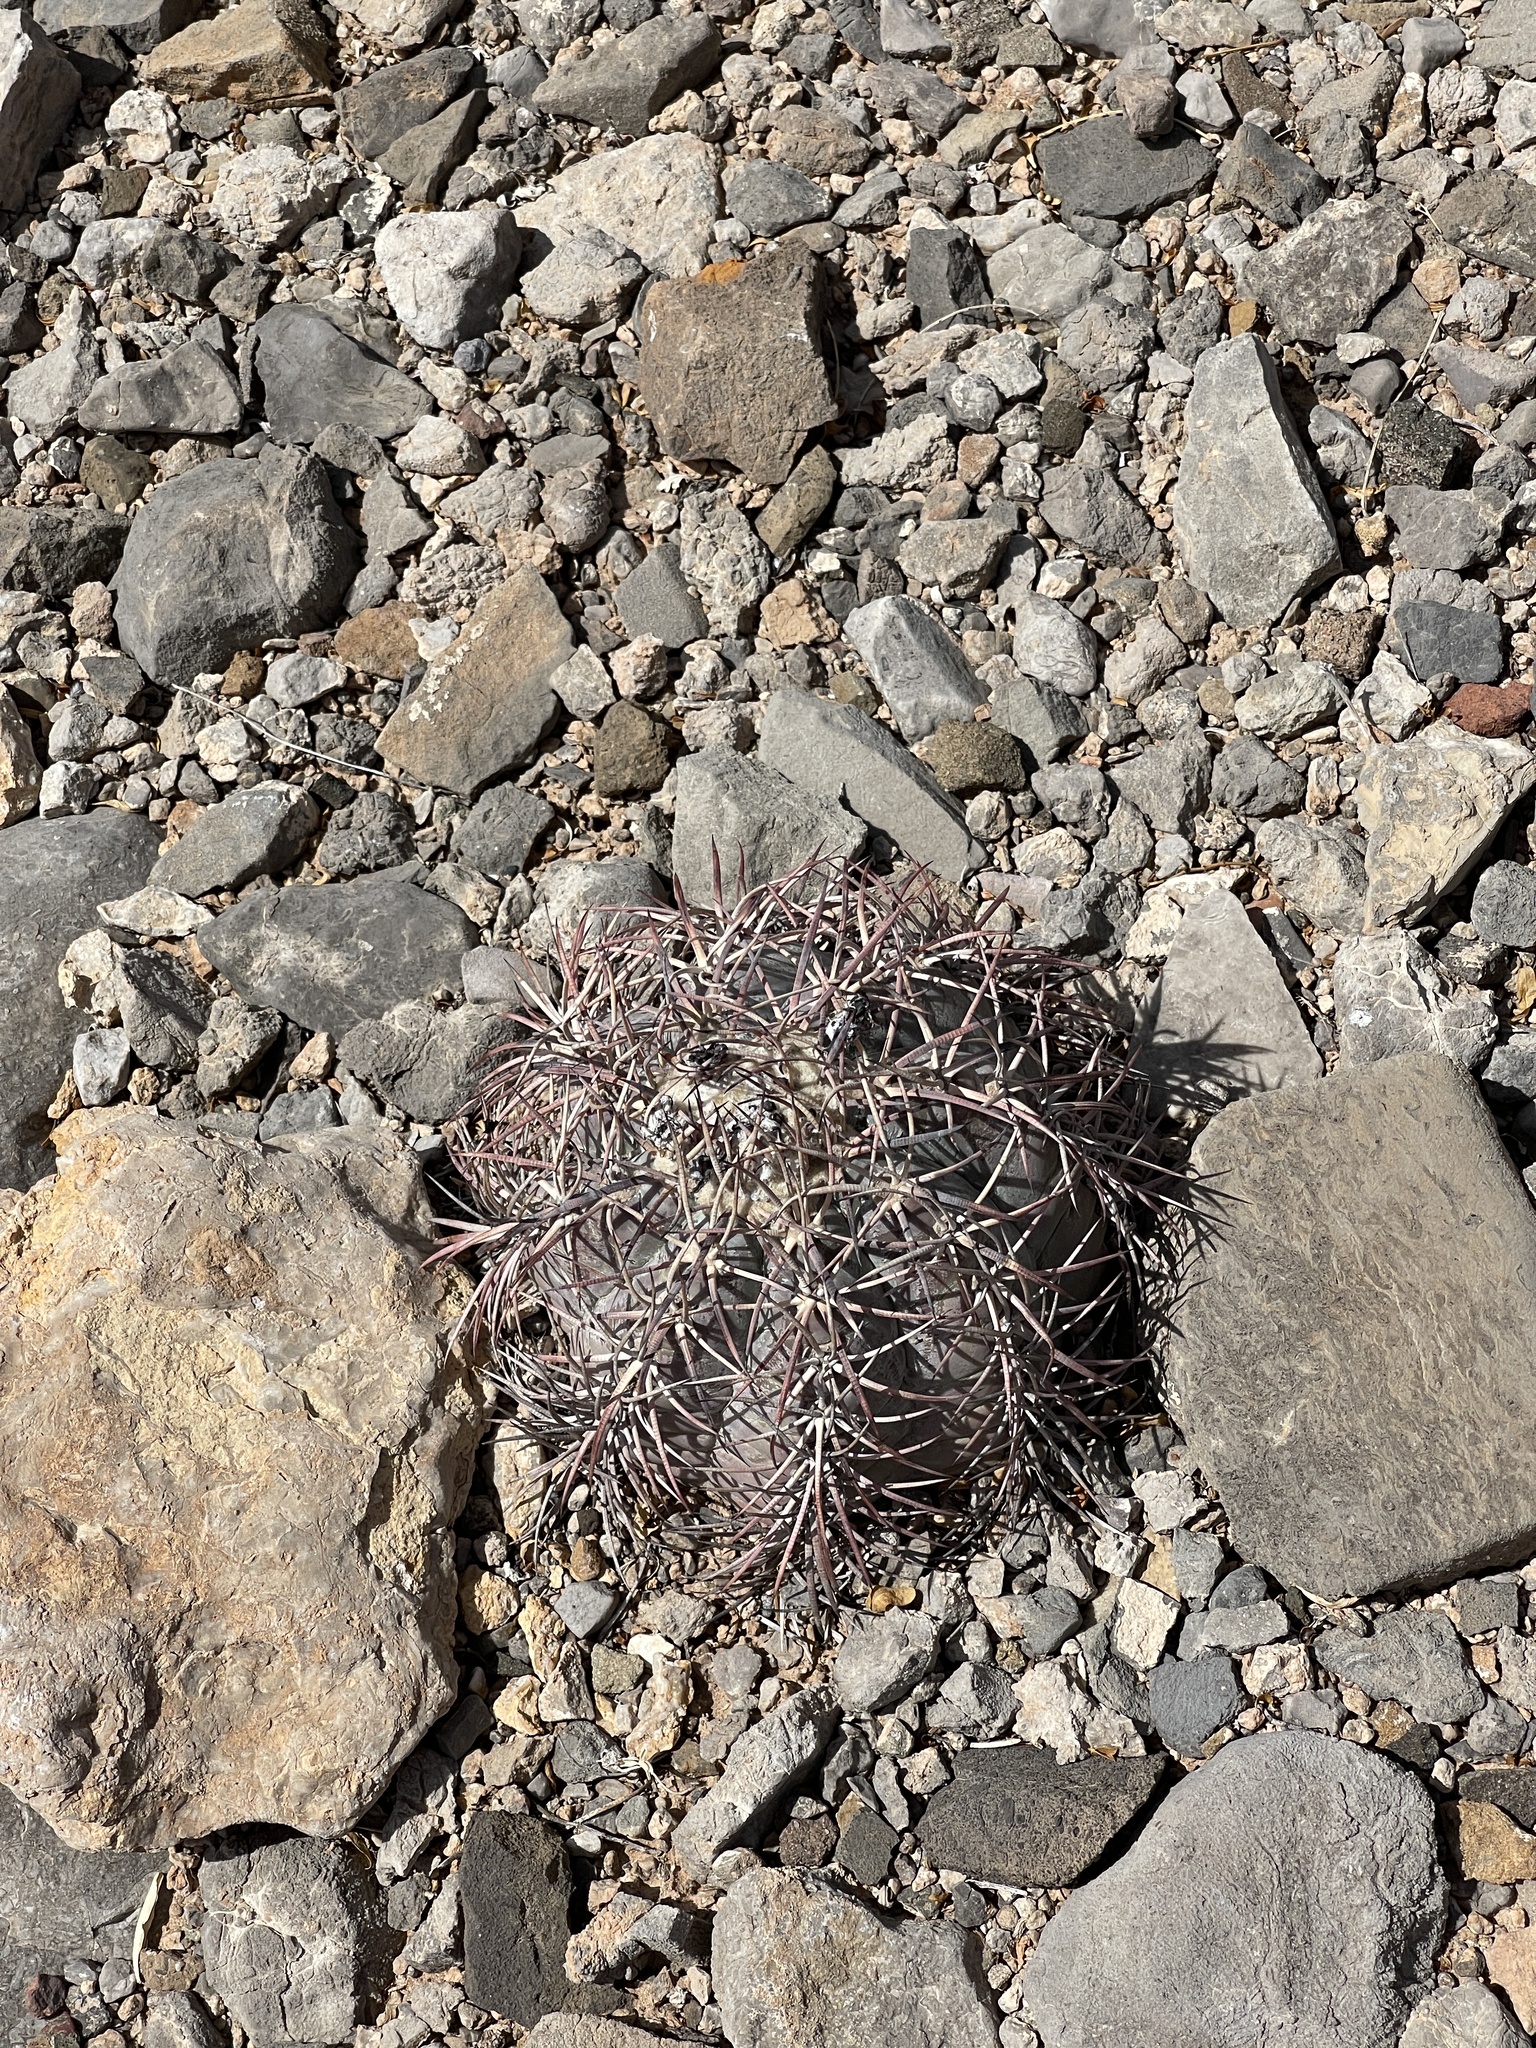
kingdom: Plantae
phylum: Tracheophyta
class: Magnoliopsida
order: Caryophyllales
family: Cactaceae
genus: Echinocactus
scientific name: Echinocactus horizonthalonius
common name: Devilshead
